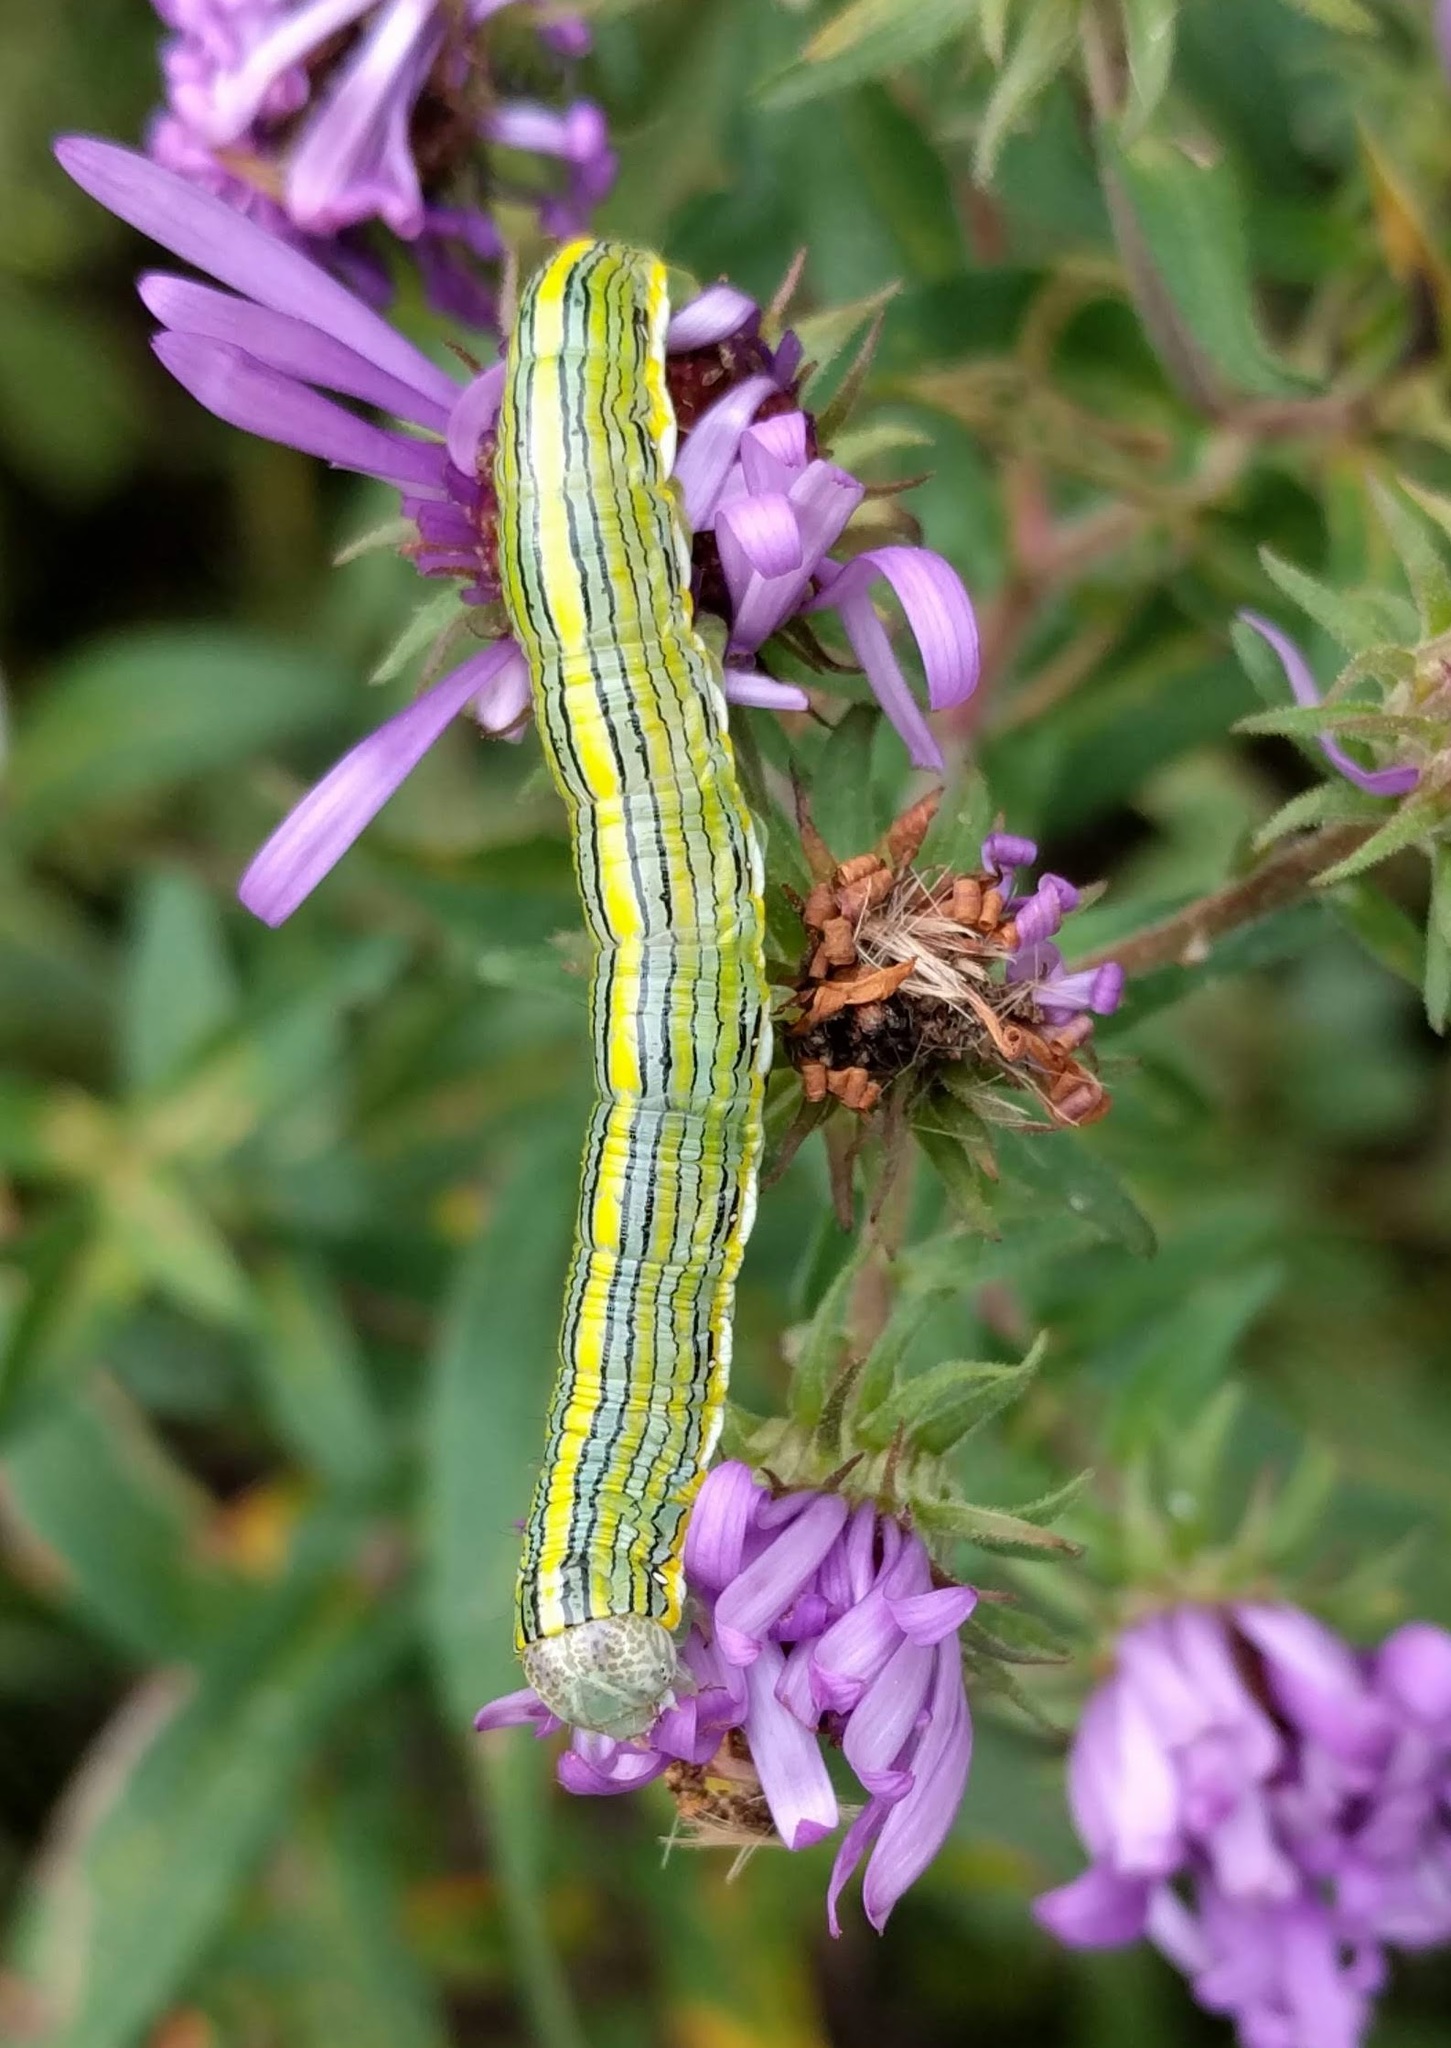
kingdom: Animalia
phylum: Arthropoda
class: Insecta
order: Lepidoptera
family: Noctuidae
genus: Cucullia
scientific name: Cucullia asteroides
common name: Asteroid moth
